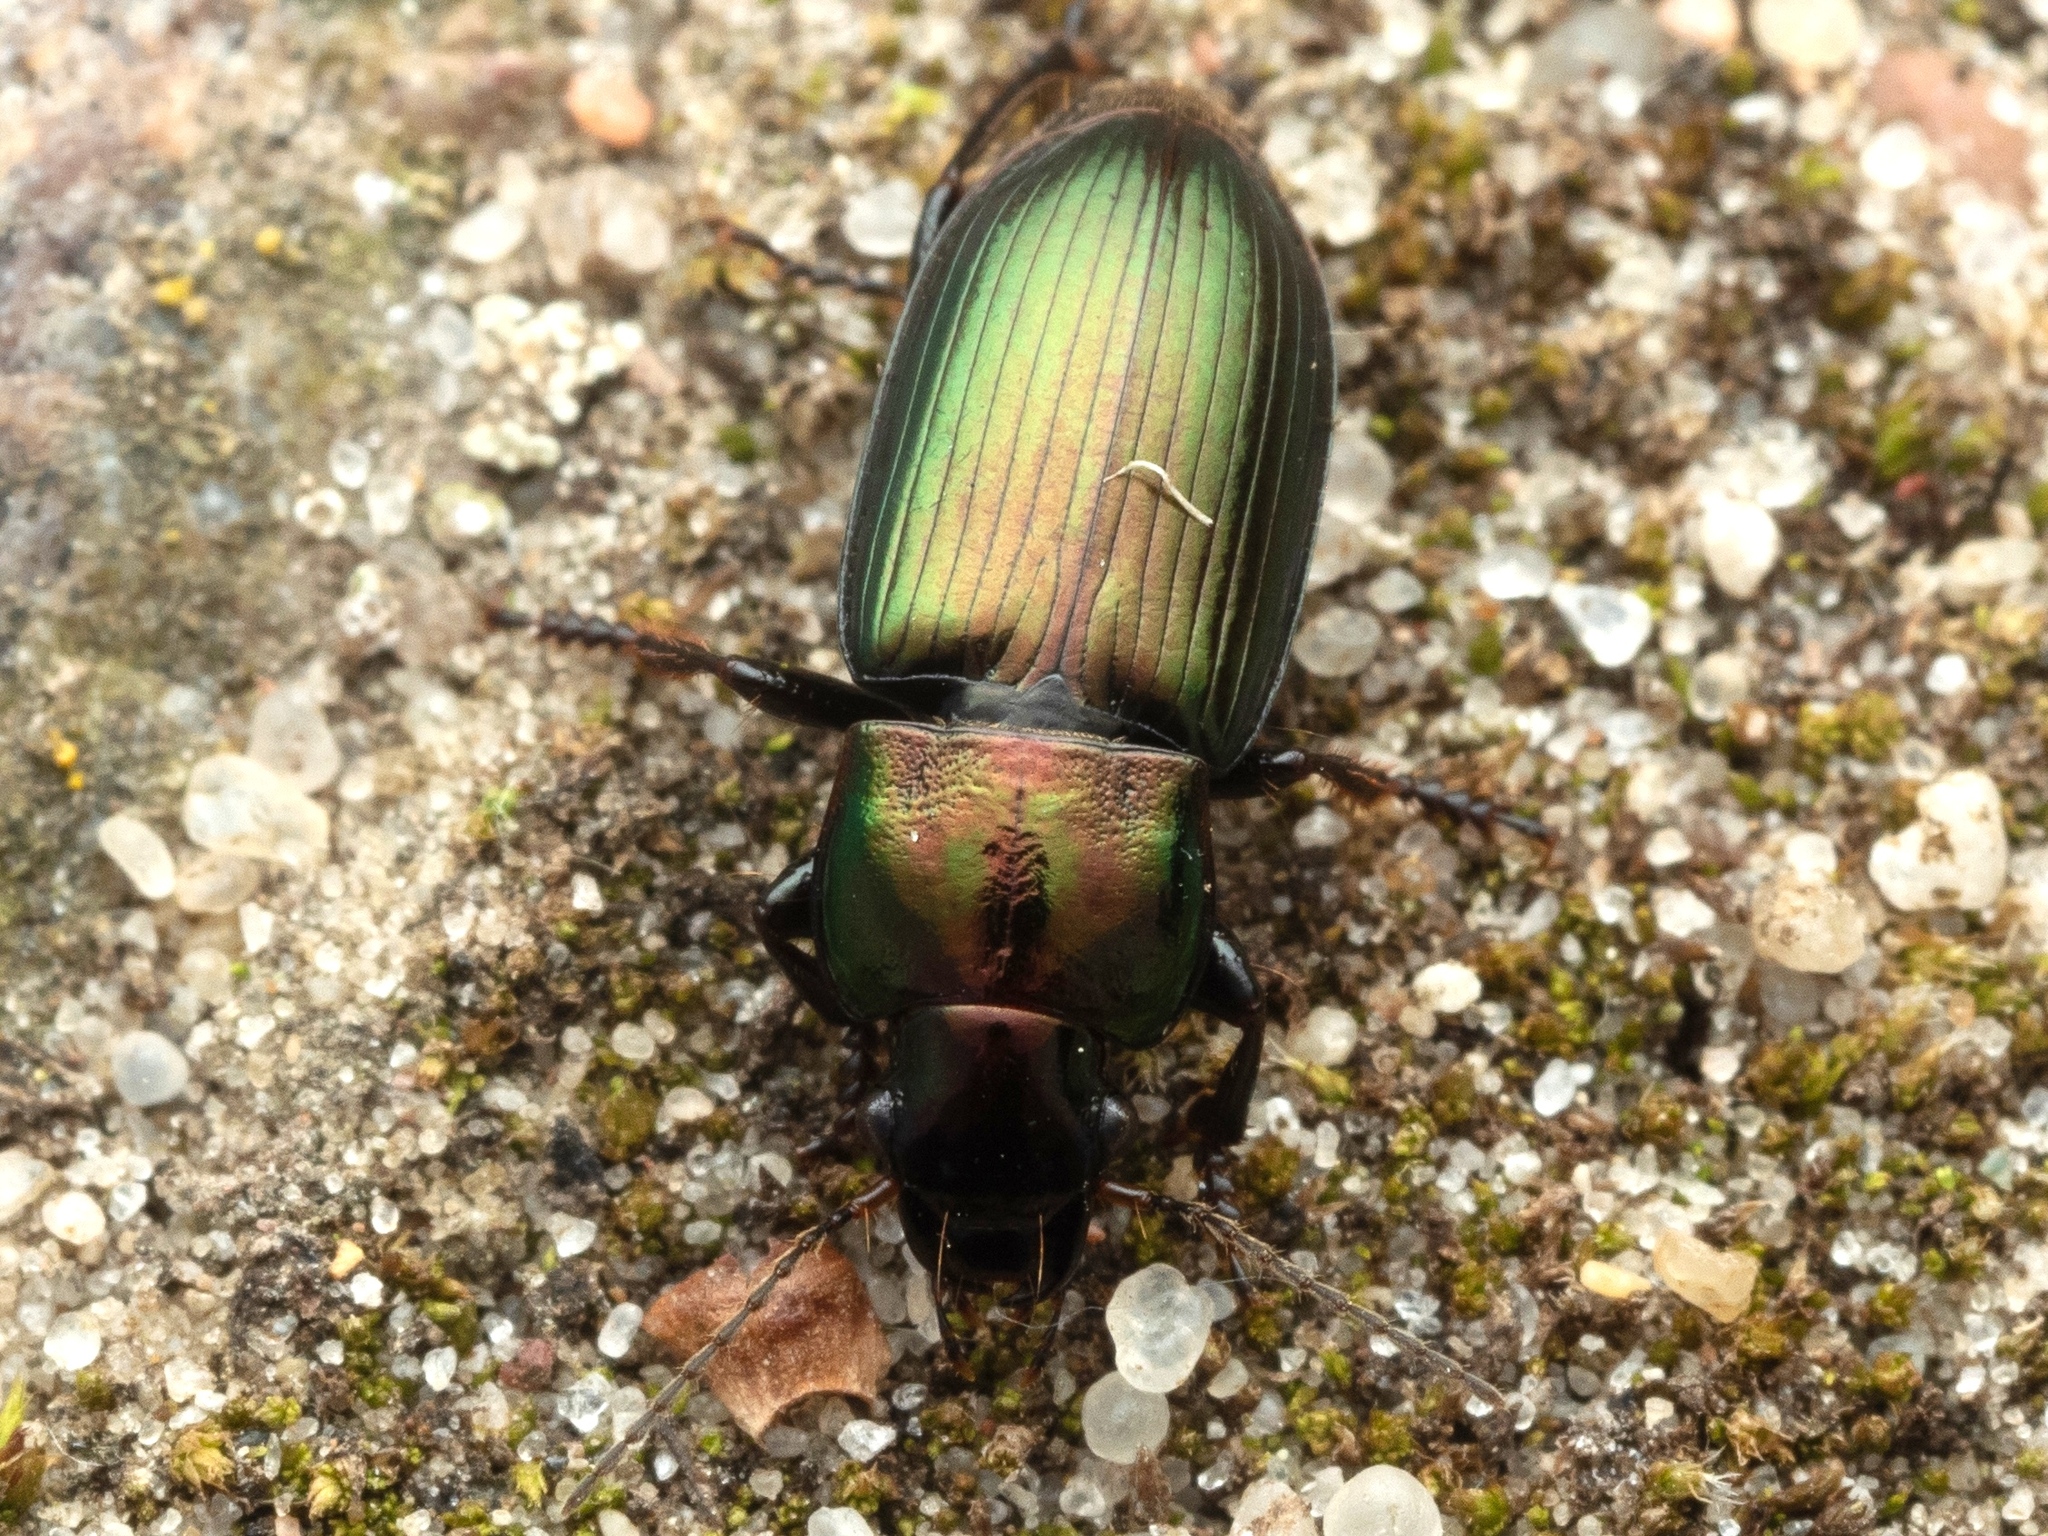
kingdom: Animalia
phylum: Arthropoda
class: Insecta
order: Coleoptera
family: Carabidae
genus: Harpalus
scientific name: Harpalus distinguendus
